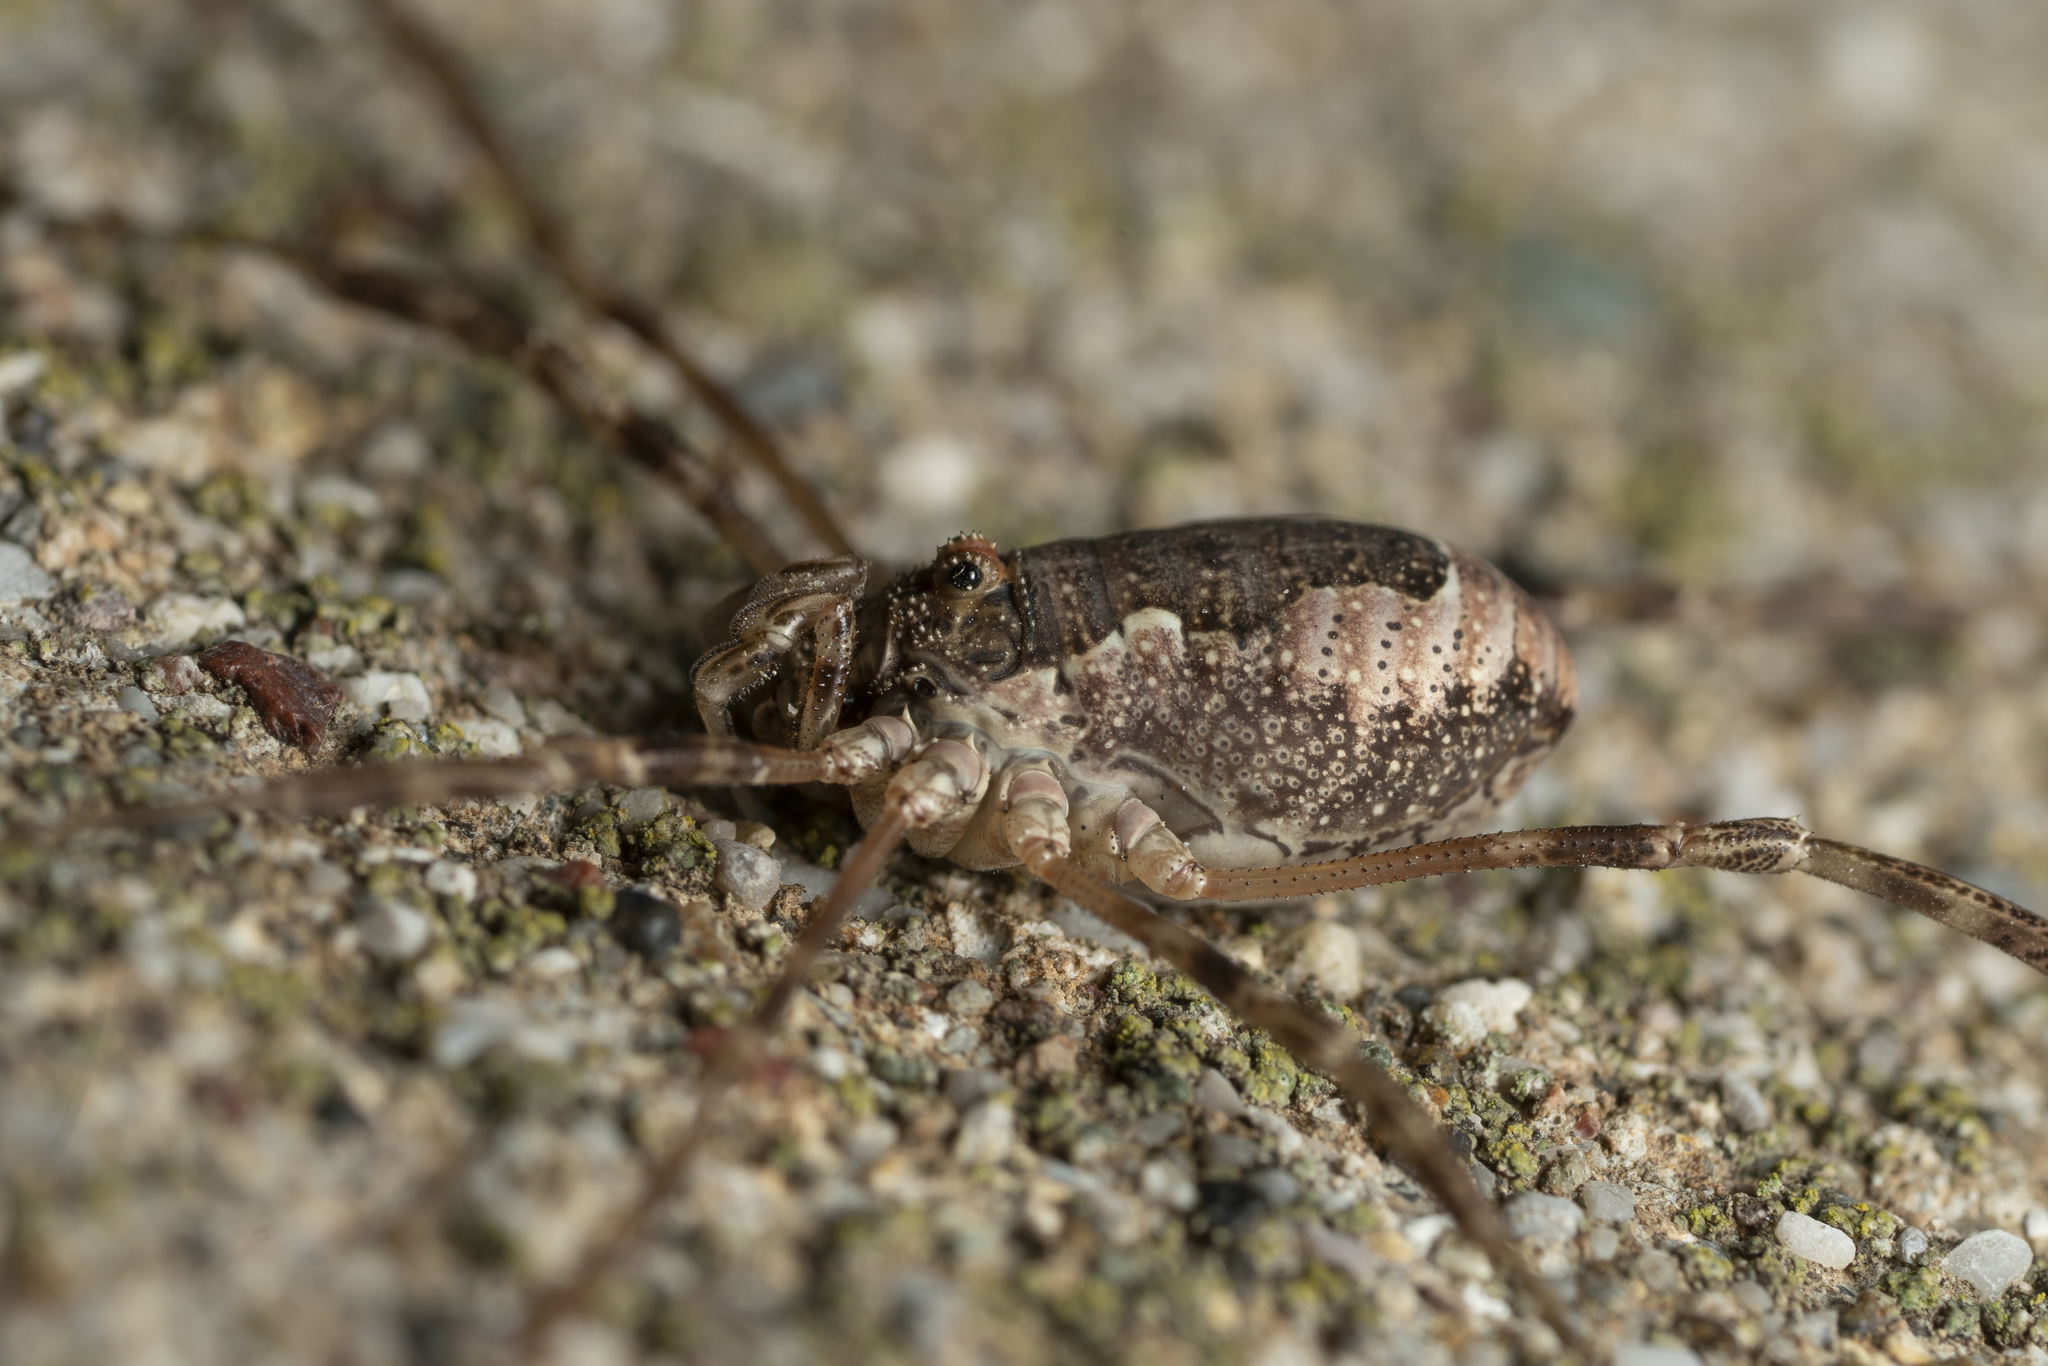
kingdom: Animalia
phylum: Arthropoda
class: Arachnida
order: Opiliones
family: Phalangiidae
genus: Rafalskia
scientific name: Rafalskia cretica
